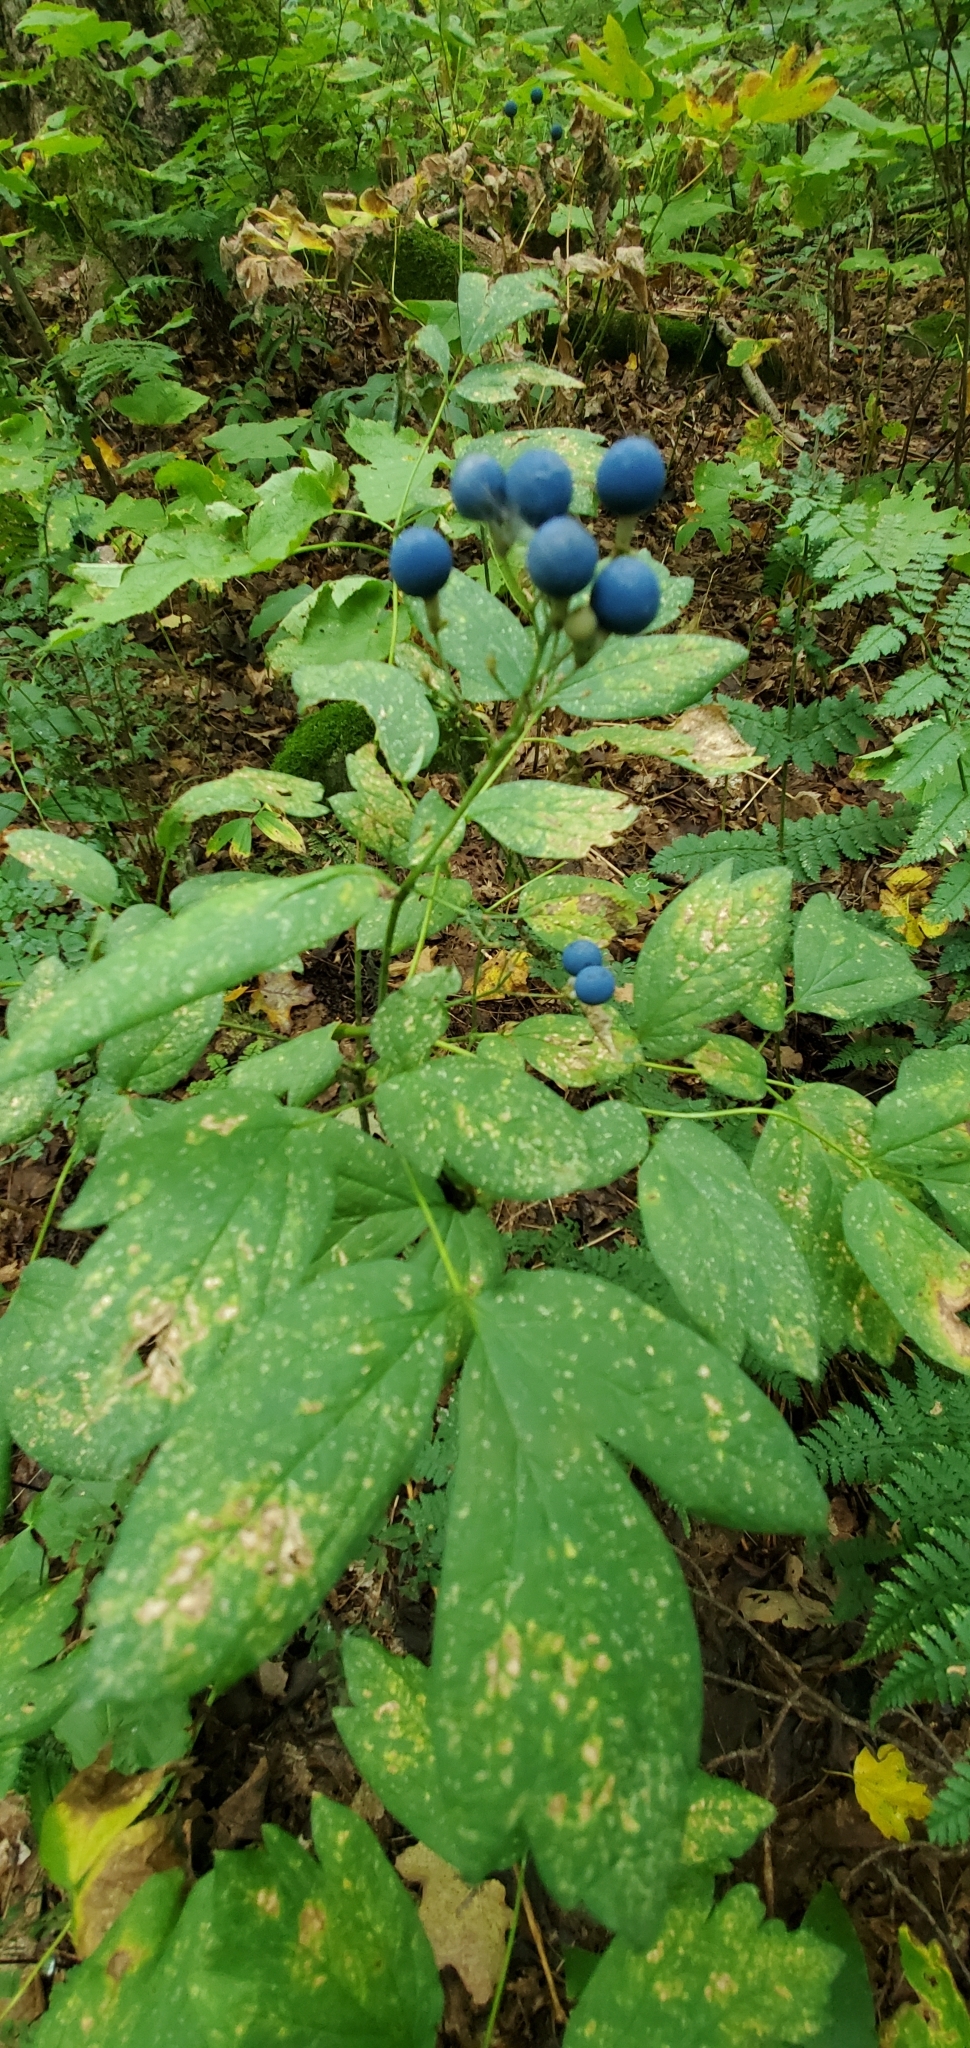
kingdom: Plantae
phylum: Tracheophyta
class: Magnoliopsida
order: Ranunculales
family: Berberidaceae
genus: Caulophyllum
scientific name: Caulophyllum thalictroides
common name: Blue cohosh
